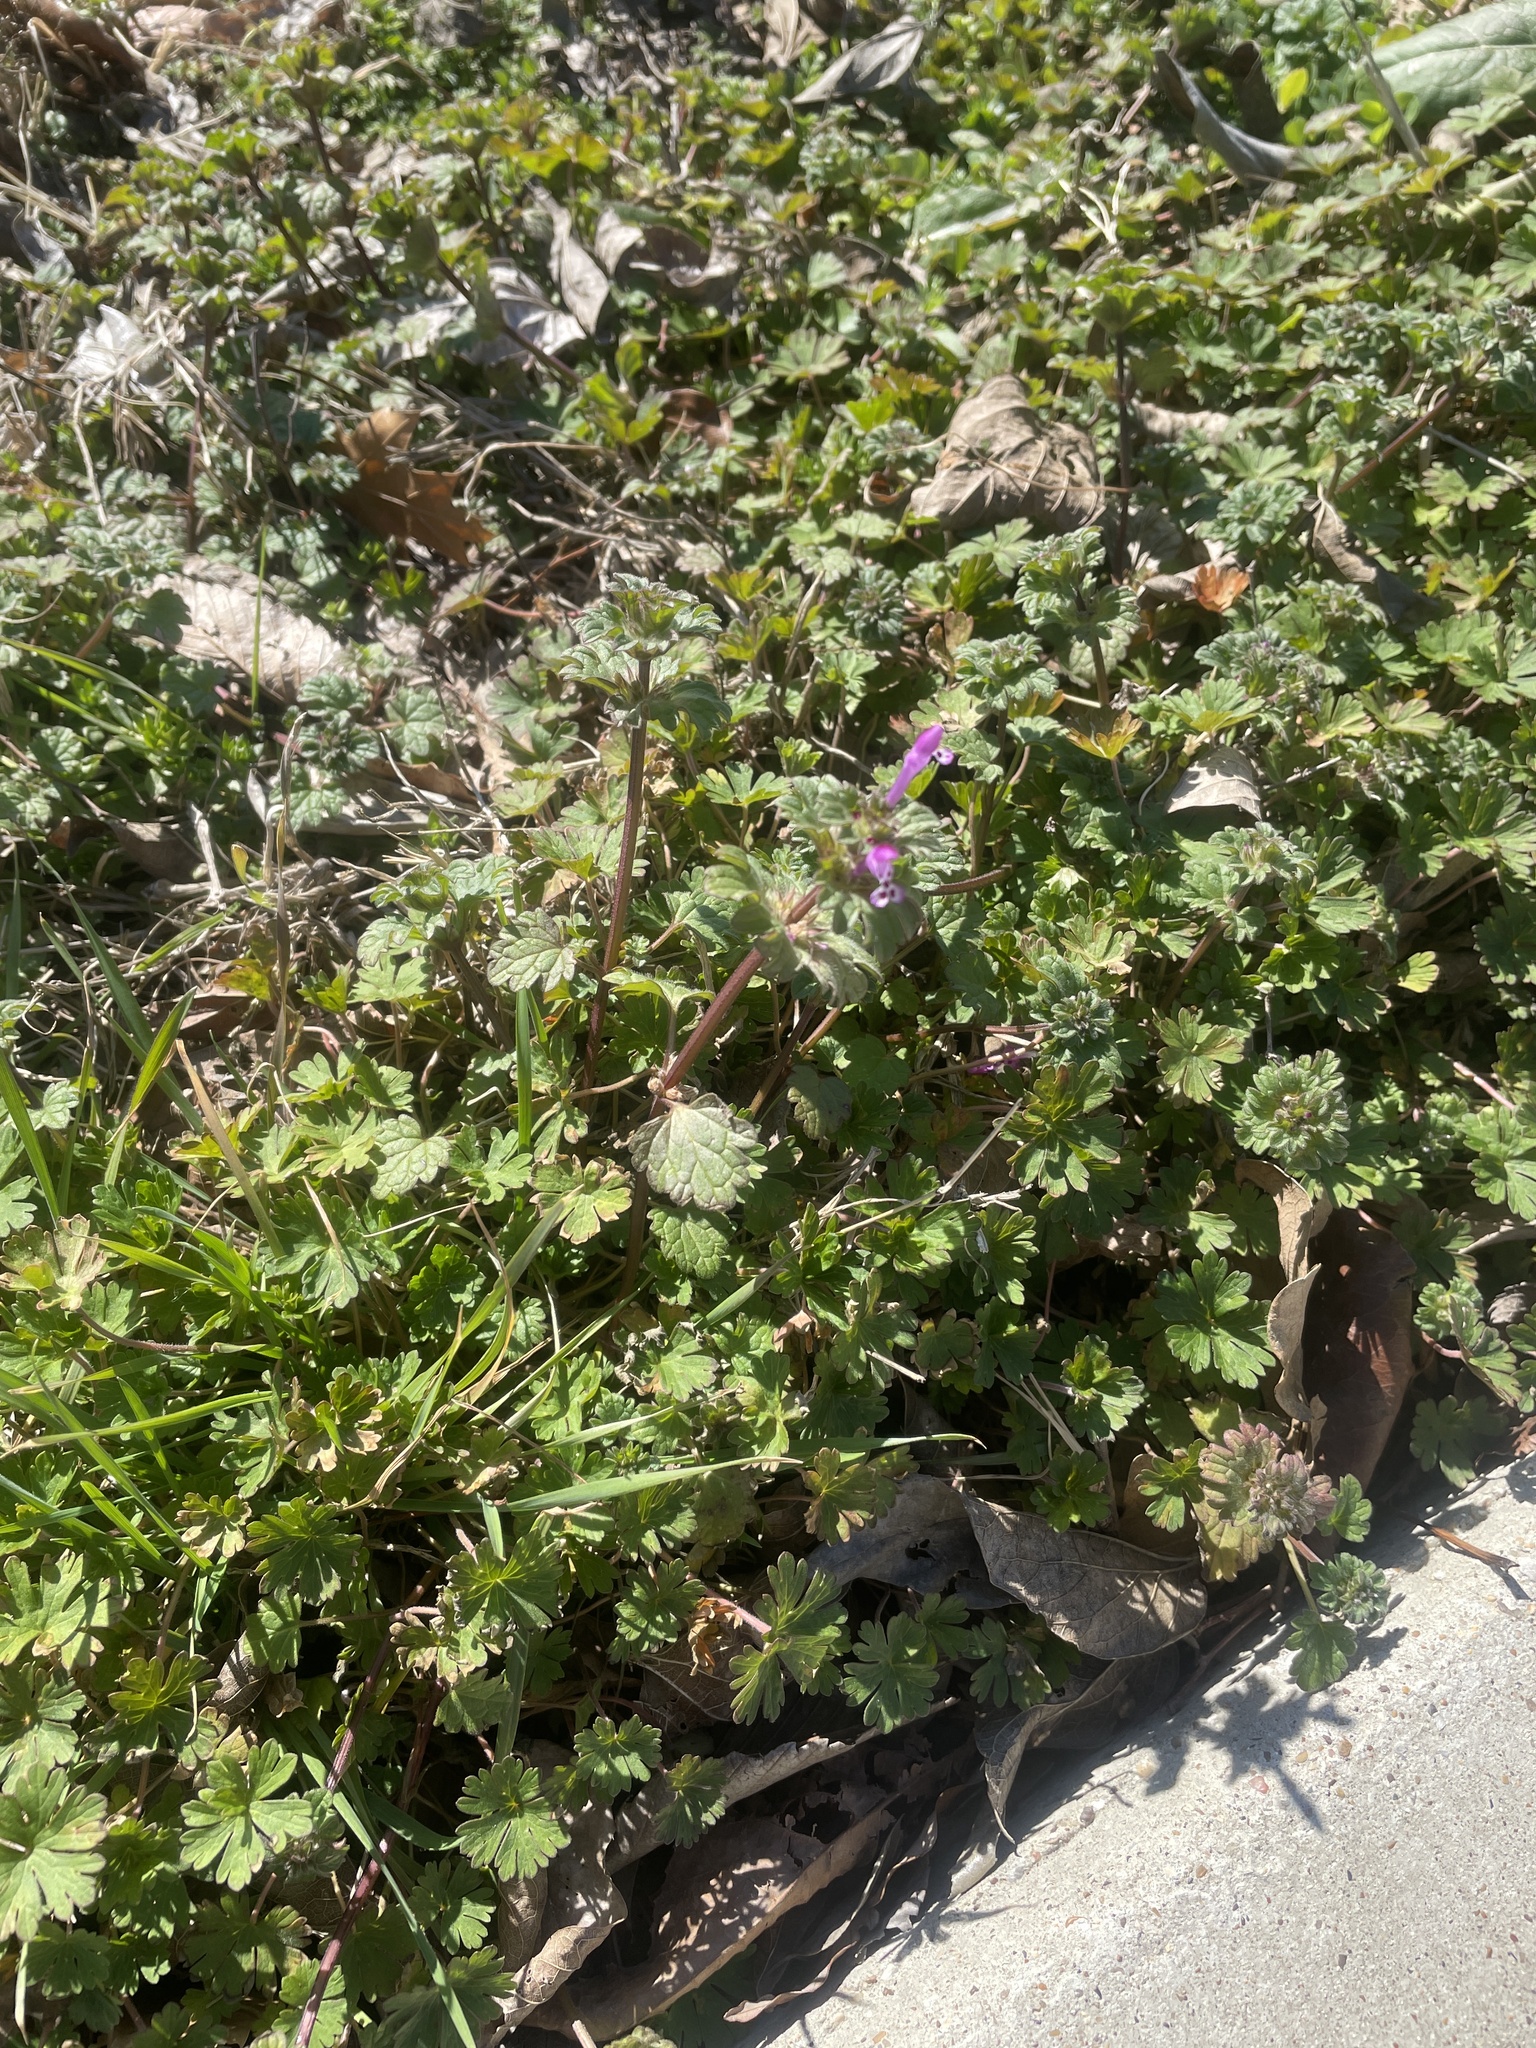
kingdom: Plantae
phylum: Tracheophyta
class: Magnoliopsida
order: Lamiales
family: Lamiaceae
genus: Lamium
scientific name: Lamium amplexicaule
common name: Henbit dead-nettle
